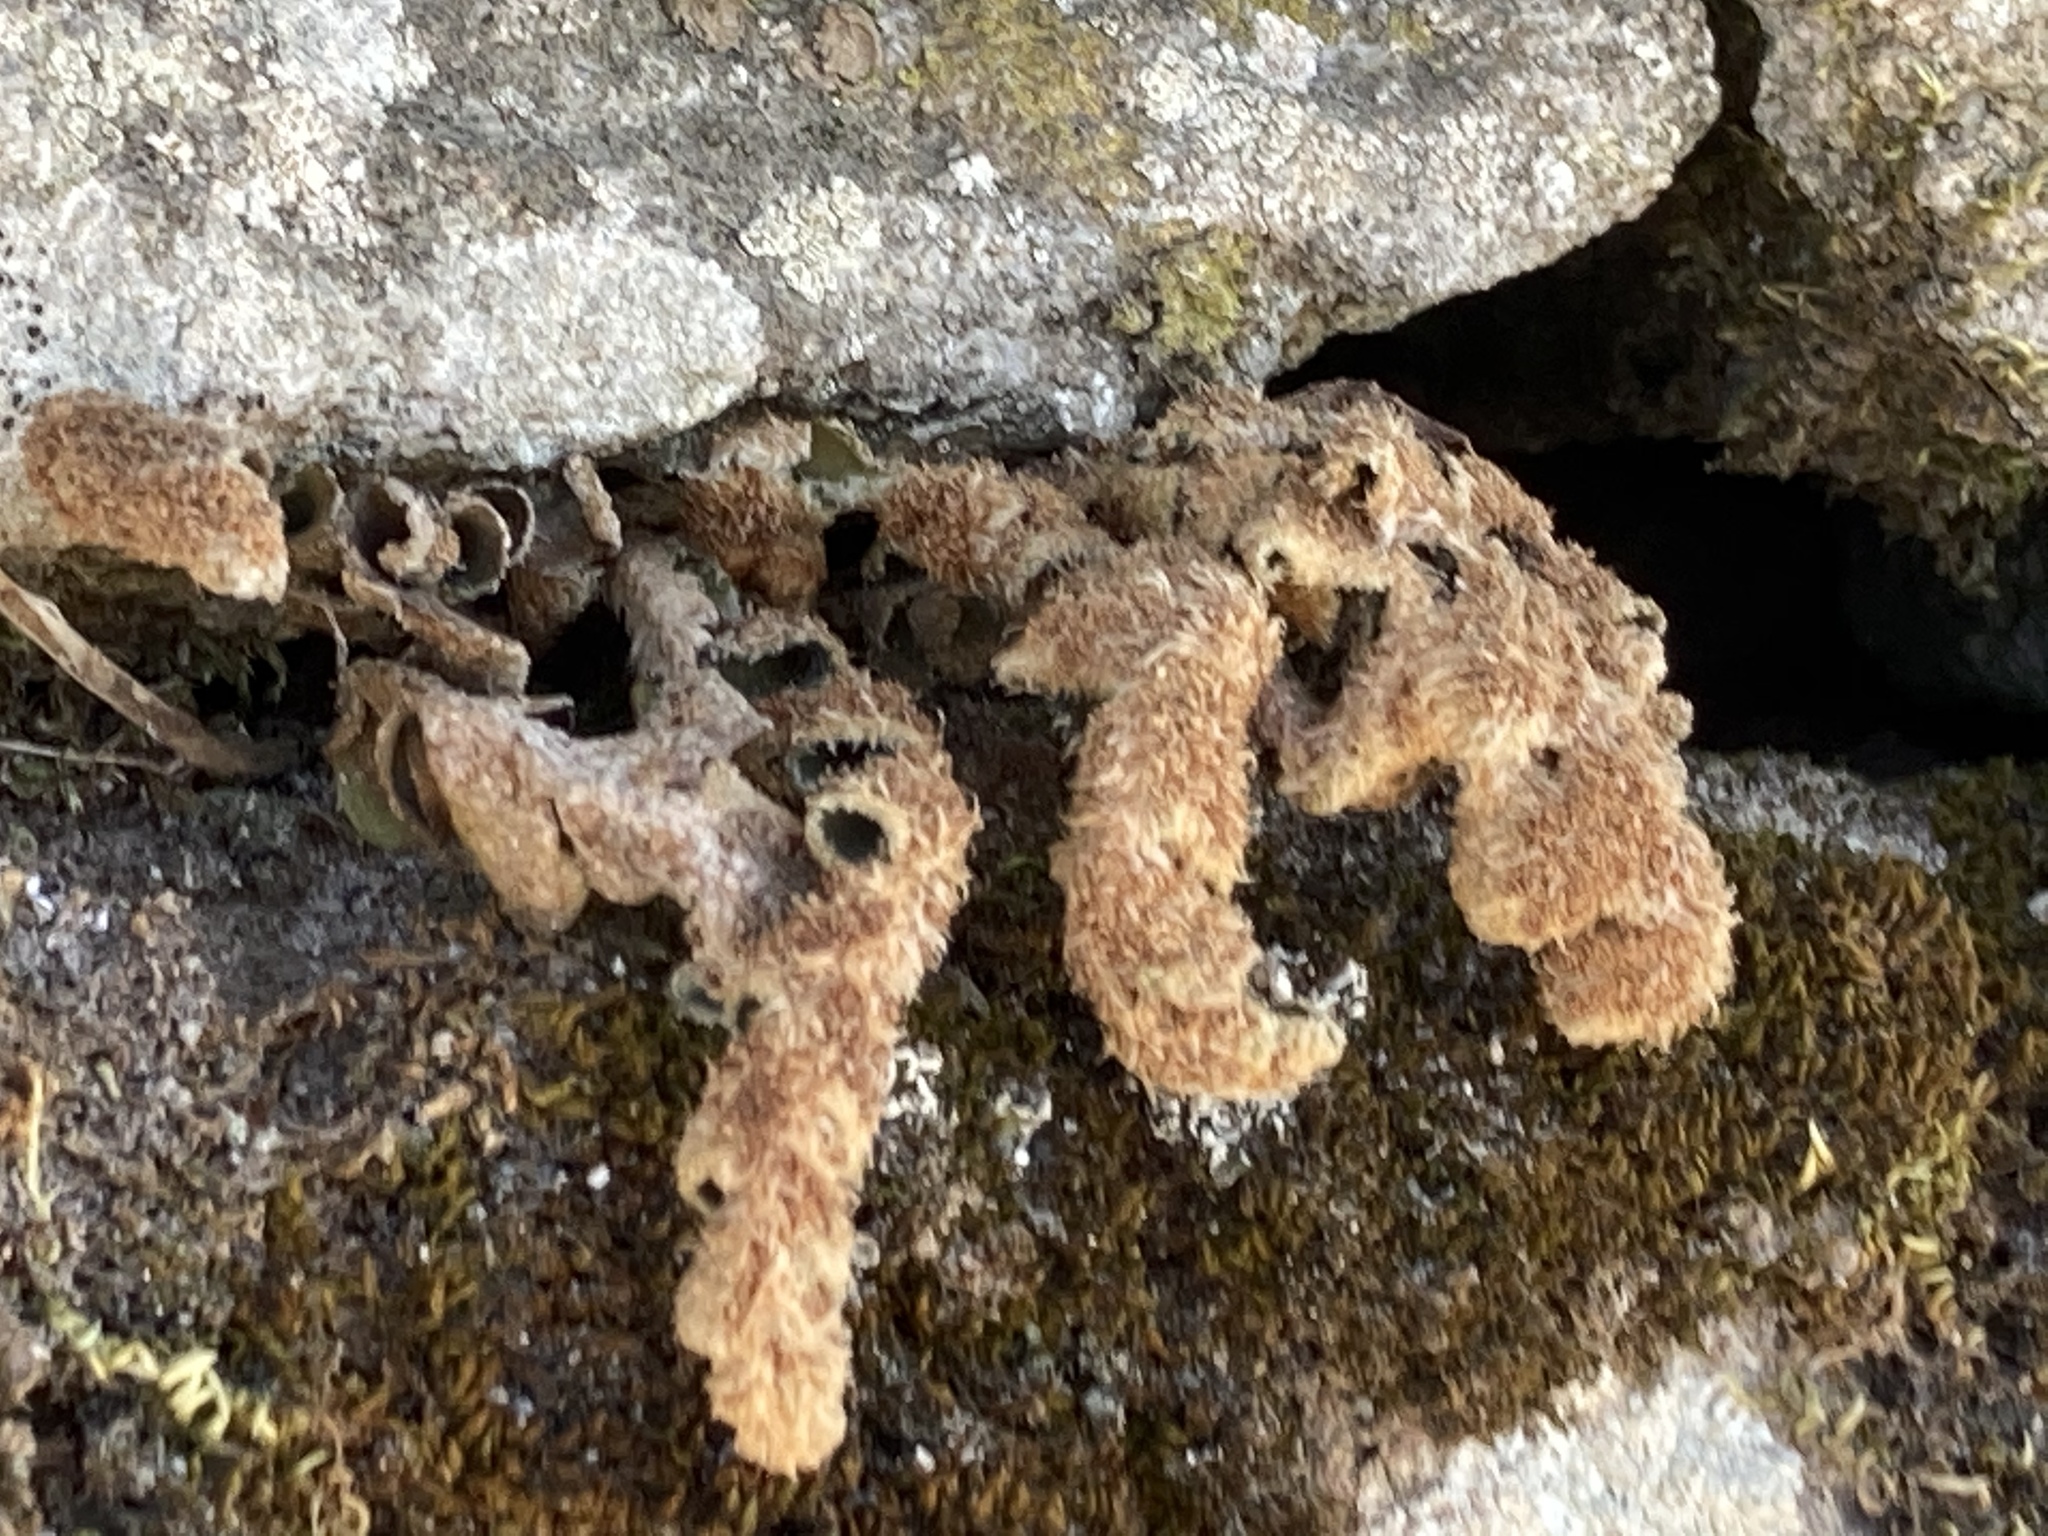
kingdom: Plantae
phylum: Tracheophyta
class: Polypodiopsida
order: Polypodiales
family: Aspleniaceae
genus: Asplenium
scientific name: Asplenium ceterach
